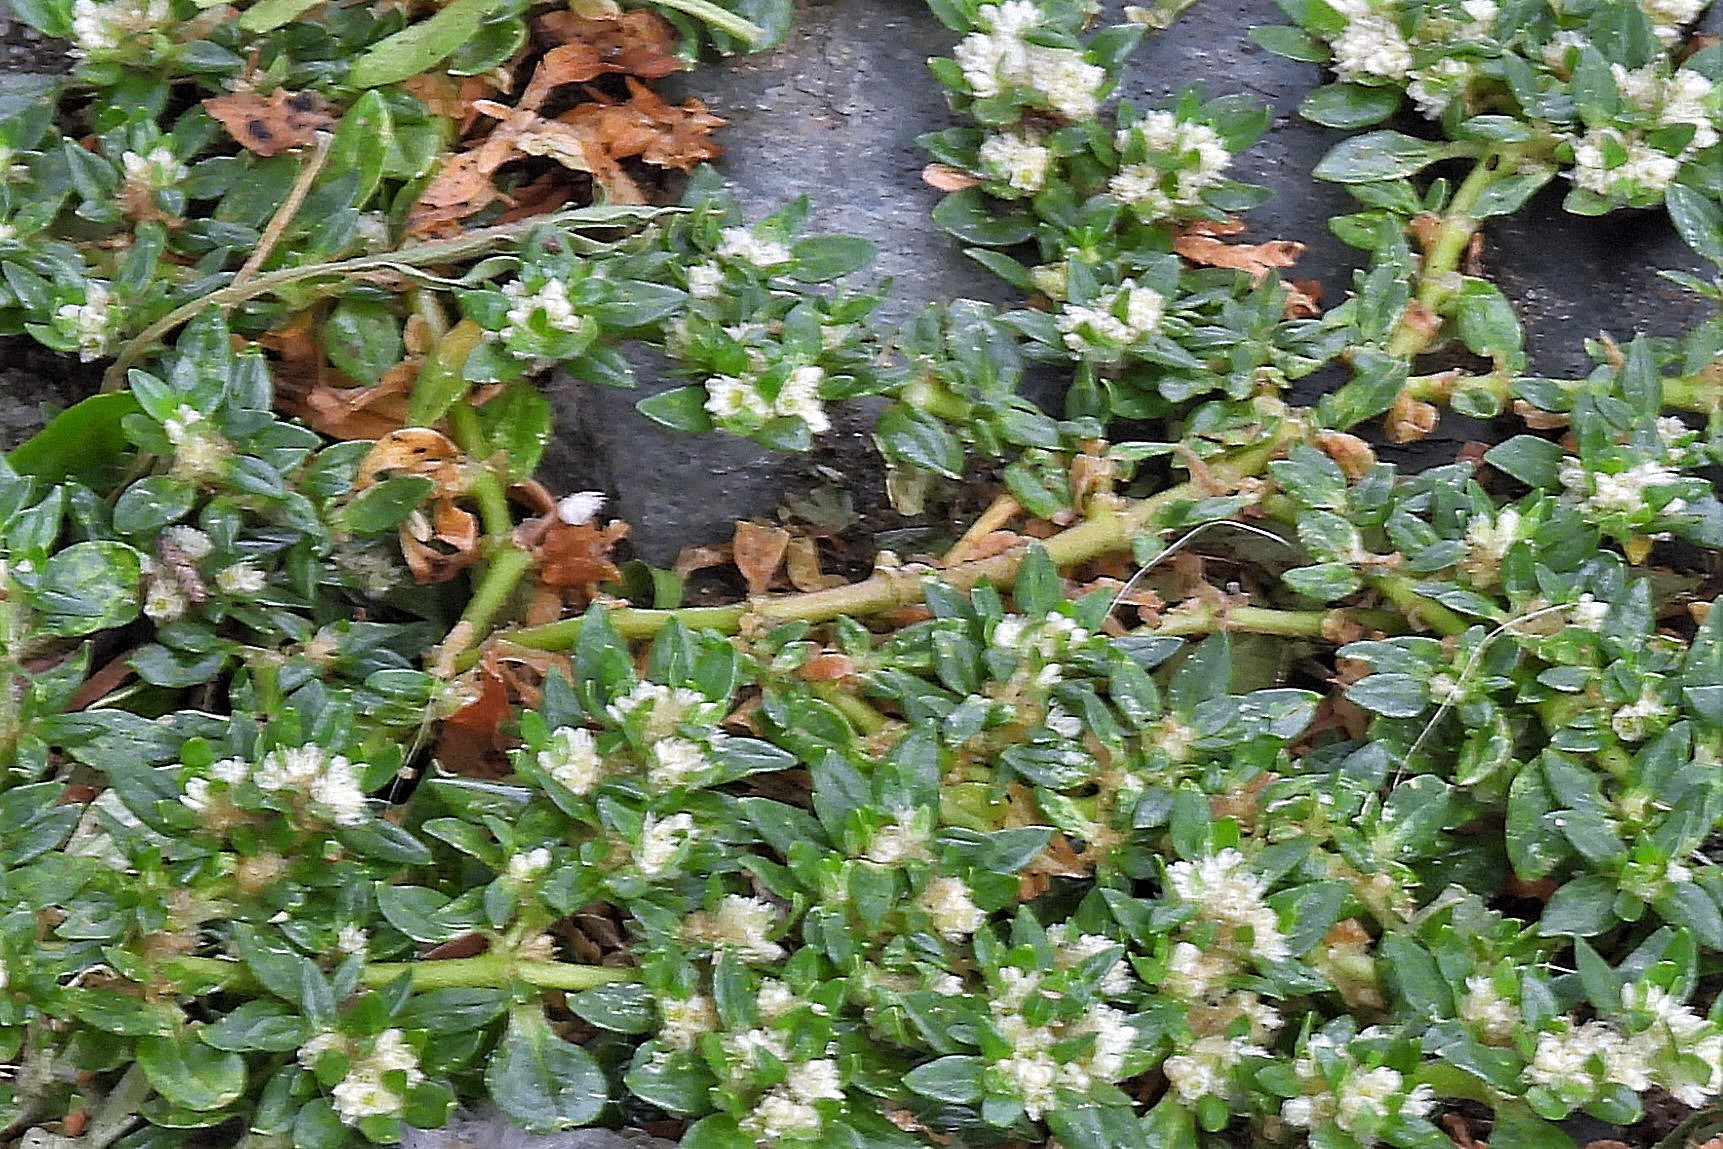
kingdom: Plantae
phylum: Tracheophyta
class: Magnoliopsida
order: Caryophyllales
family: Amaranthaceae
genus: Alternanthera
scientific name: Alternanthera caracasana
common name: Washerwoman
